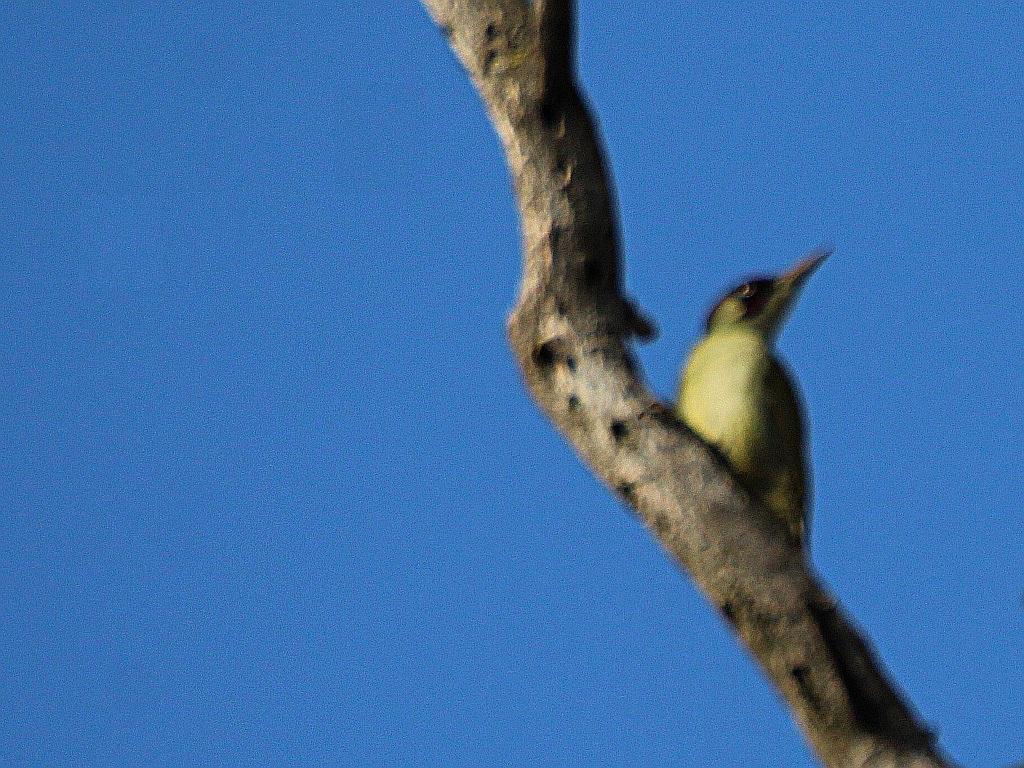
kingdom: Animalia
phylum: Chordata
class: Aves
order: Piciformes
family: Picidae
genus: Picus
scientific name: Picus viridis
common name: European green woodpecker
